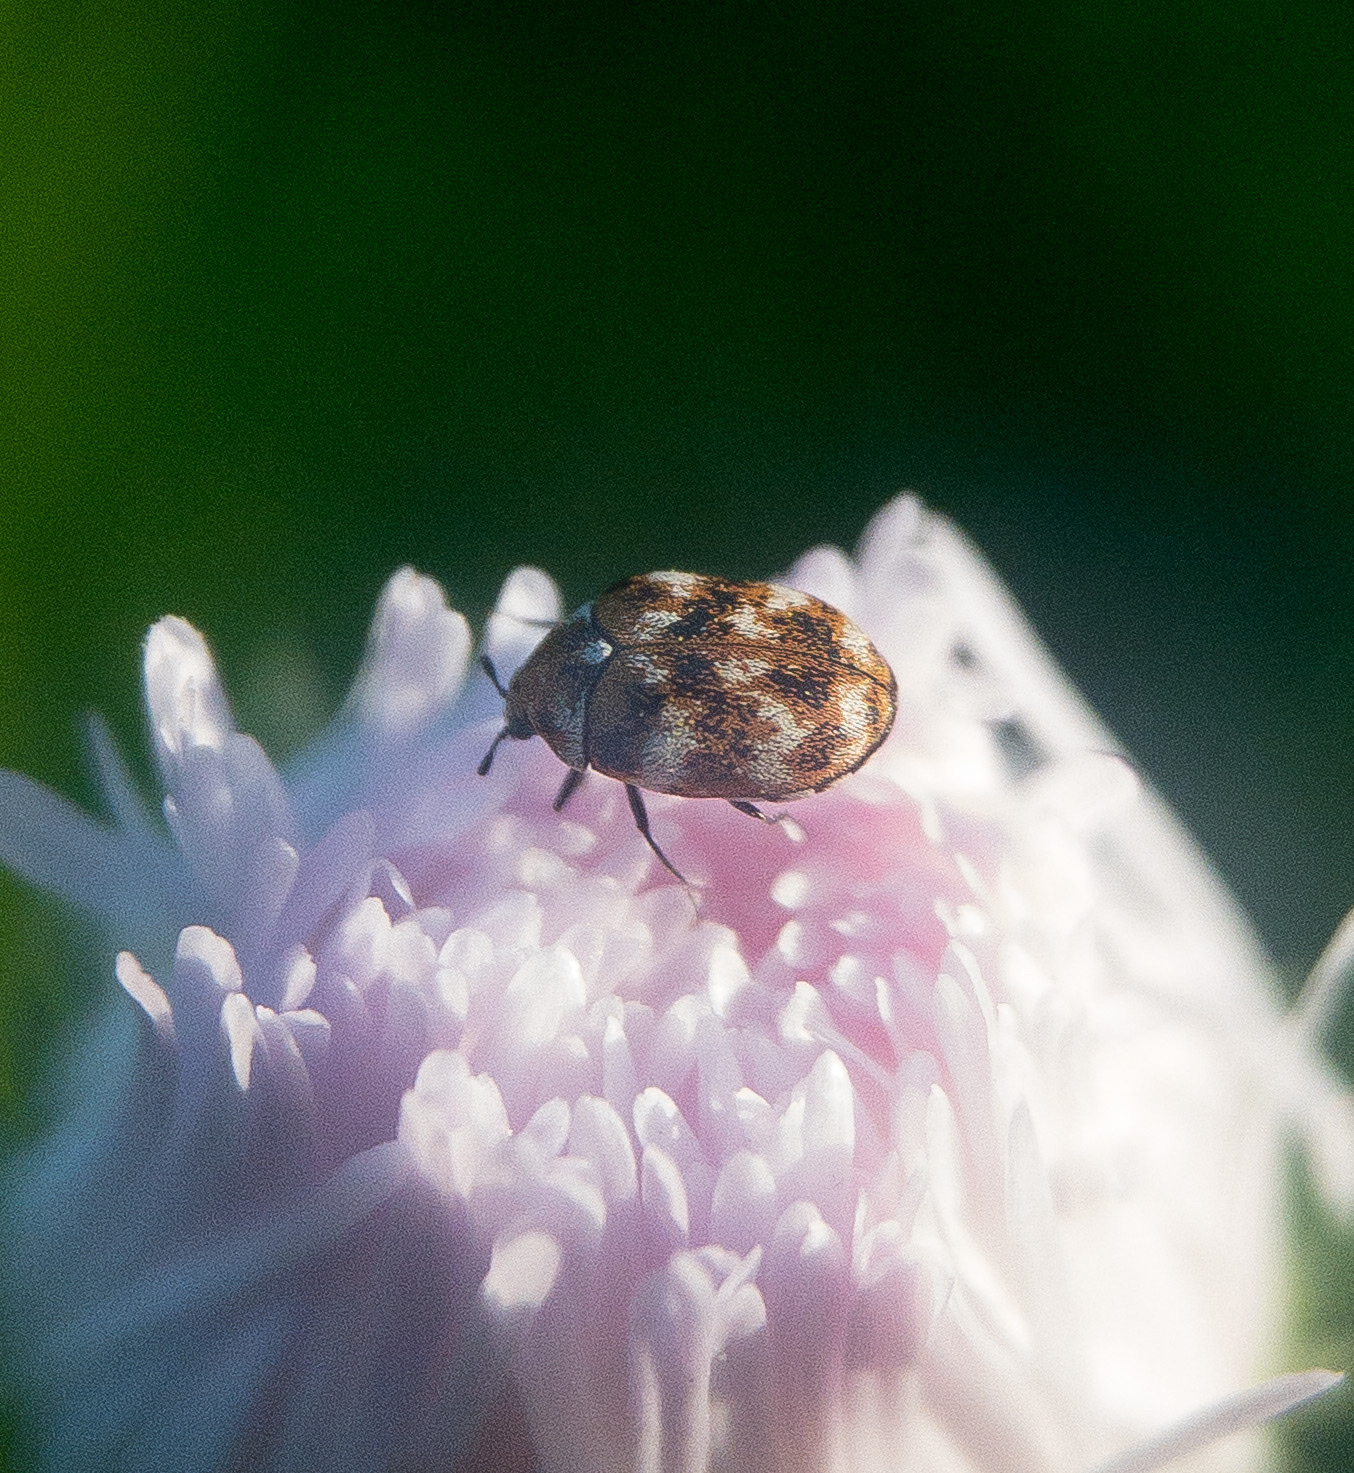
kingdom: Animalia
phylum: Arthropoda
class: Insecta
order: Coleoptera
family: Dermestidae
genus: Anthrenus
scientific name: Anthrenus verbasci
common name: Varied carpet beetle
